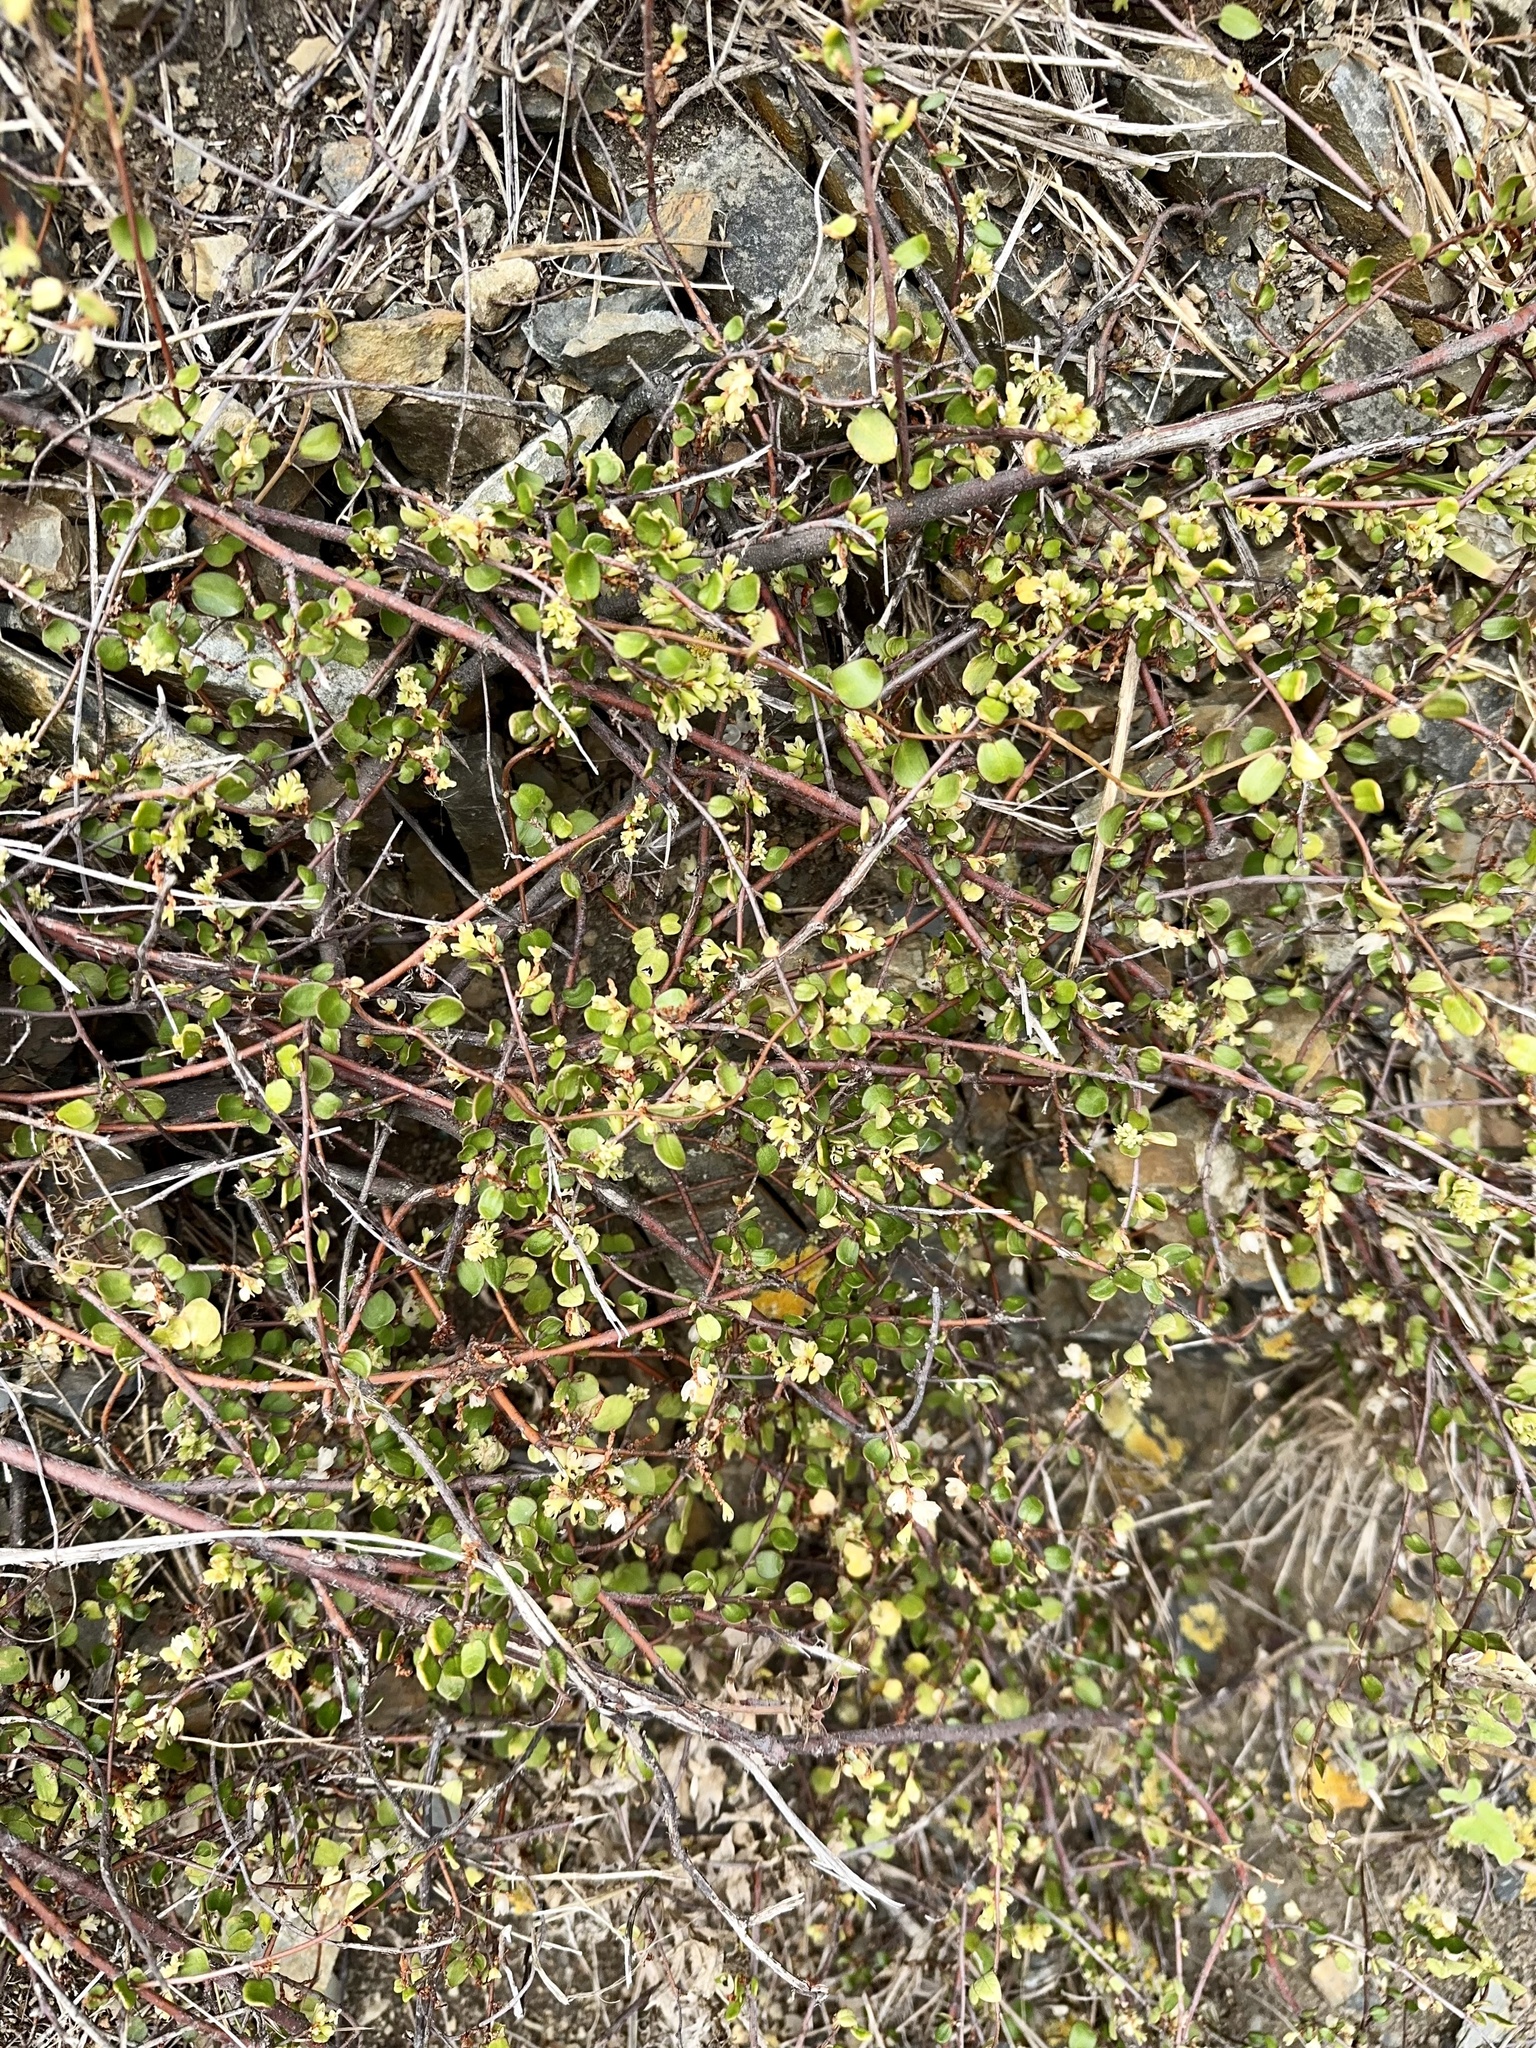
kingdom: Plantae
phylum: Tracheophyta
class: Magnoliopsida
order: Caryophyllales
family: Polygonaceae
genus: Muehlenbeckia
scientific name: Muehlenbeckia complexa
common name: Wireplant
